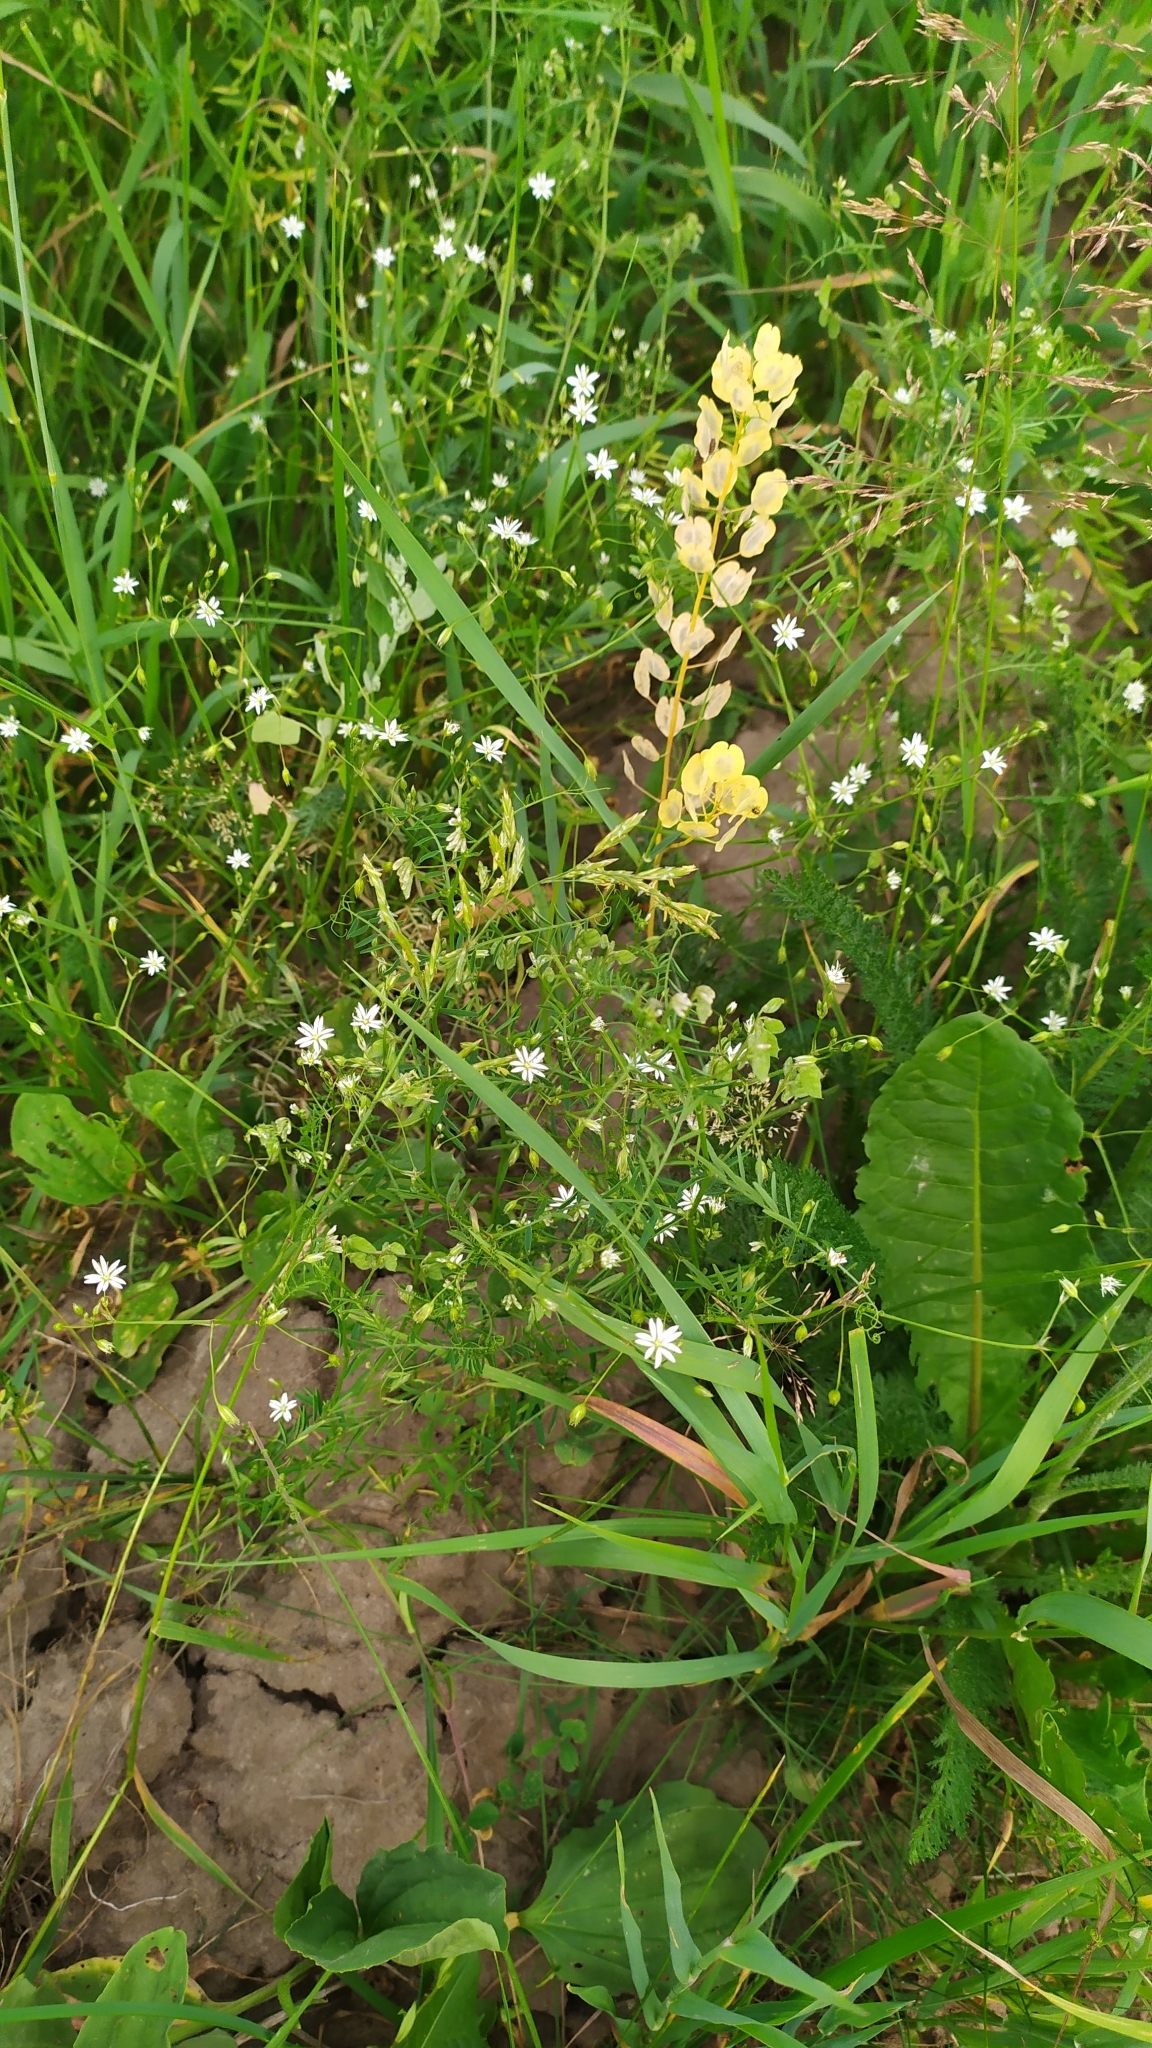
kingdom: Plantae
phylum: Tracheophyta
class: Magnoliopsida
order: Brassicales
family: Brassicaceae
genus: Thlaspi
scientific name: Thlaspi arvense
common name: Field pennycress
